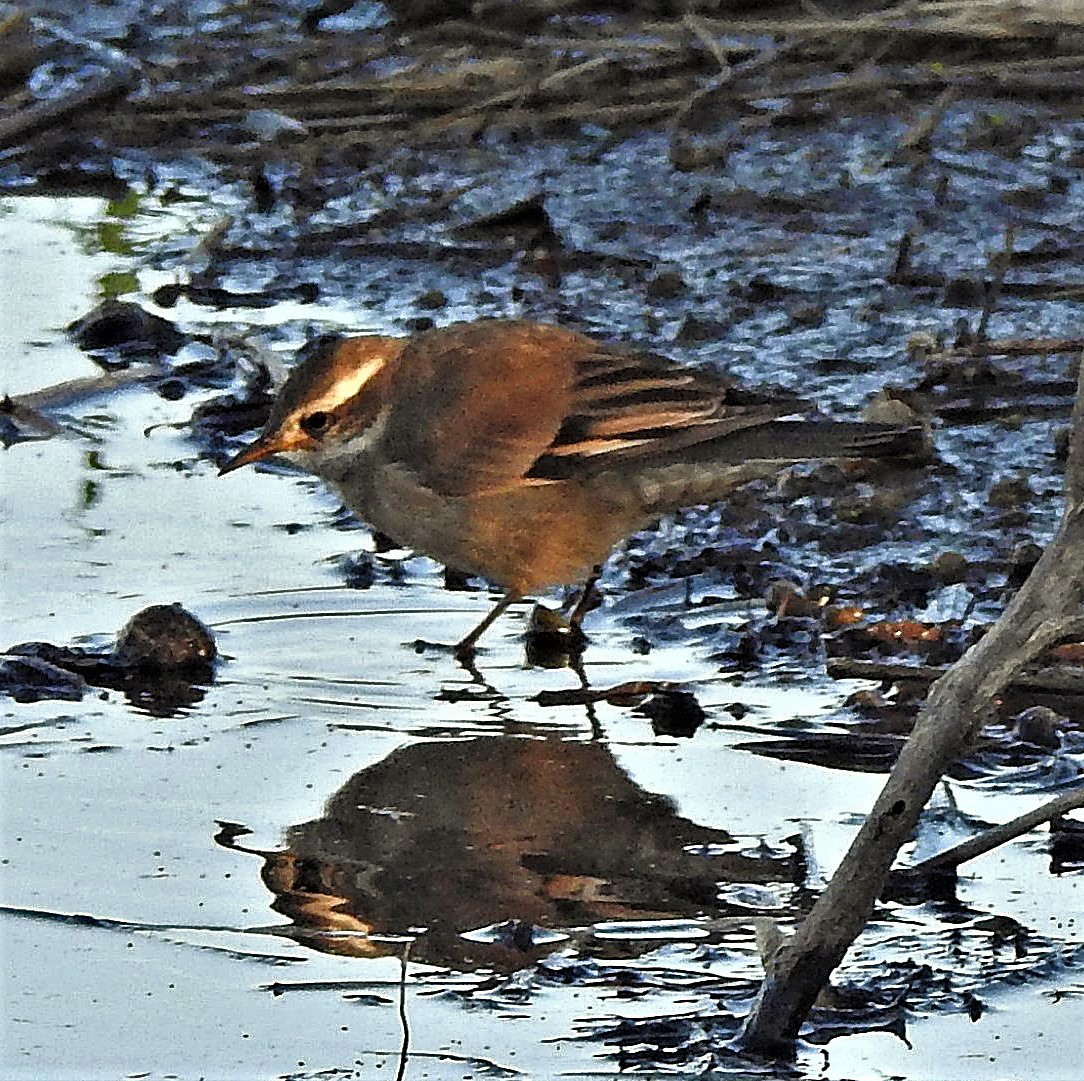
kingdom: Animalia
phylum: Chordata
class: Aves
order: Passeriformes
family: Furnariidae
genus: Cinclodes
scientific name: Cinclodes fuscus
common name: Buff-winged cinclodes
